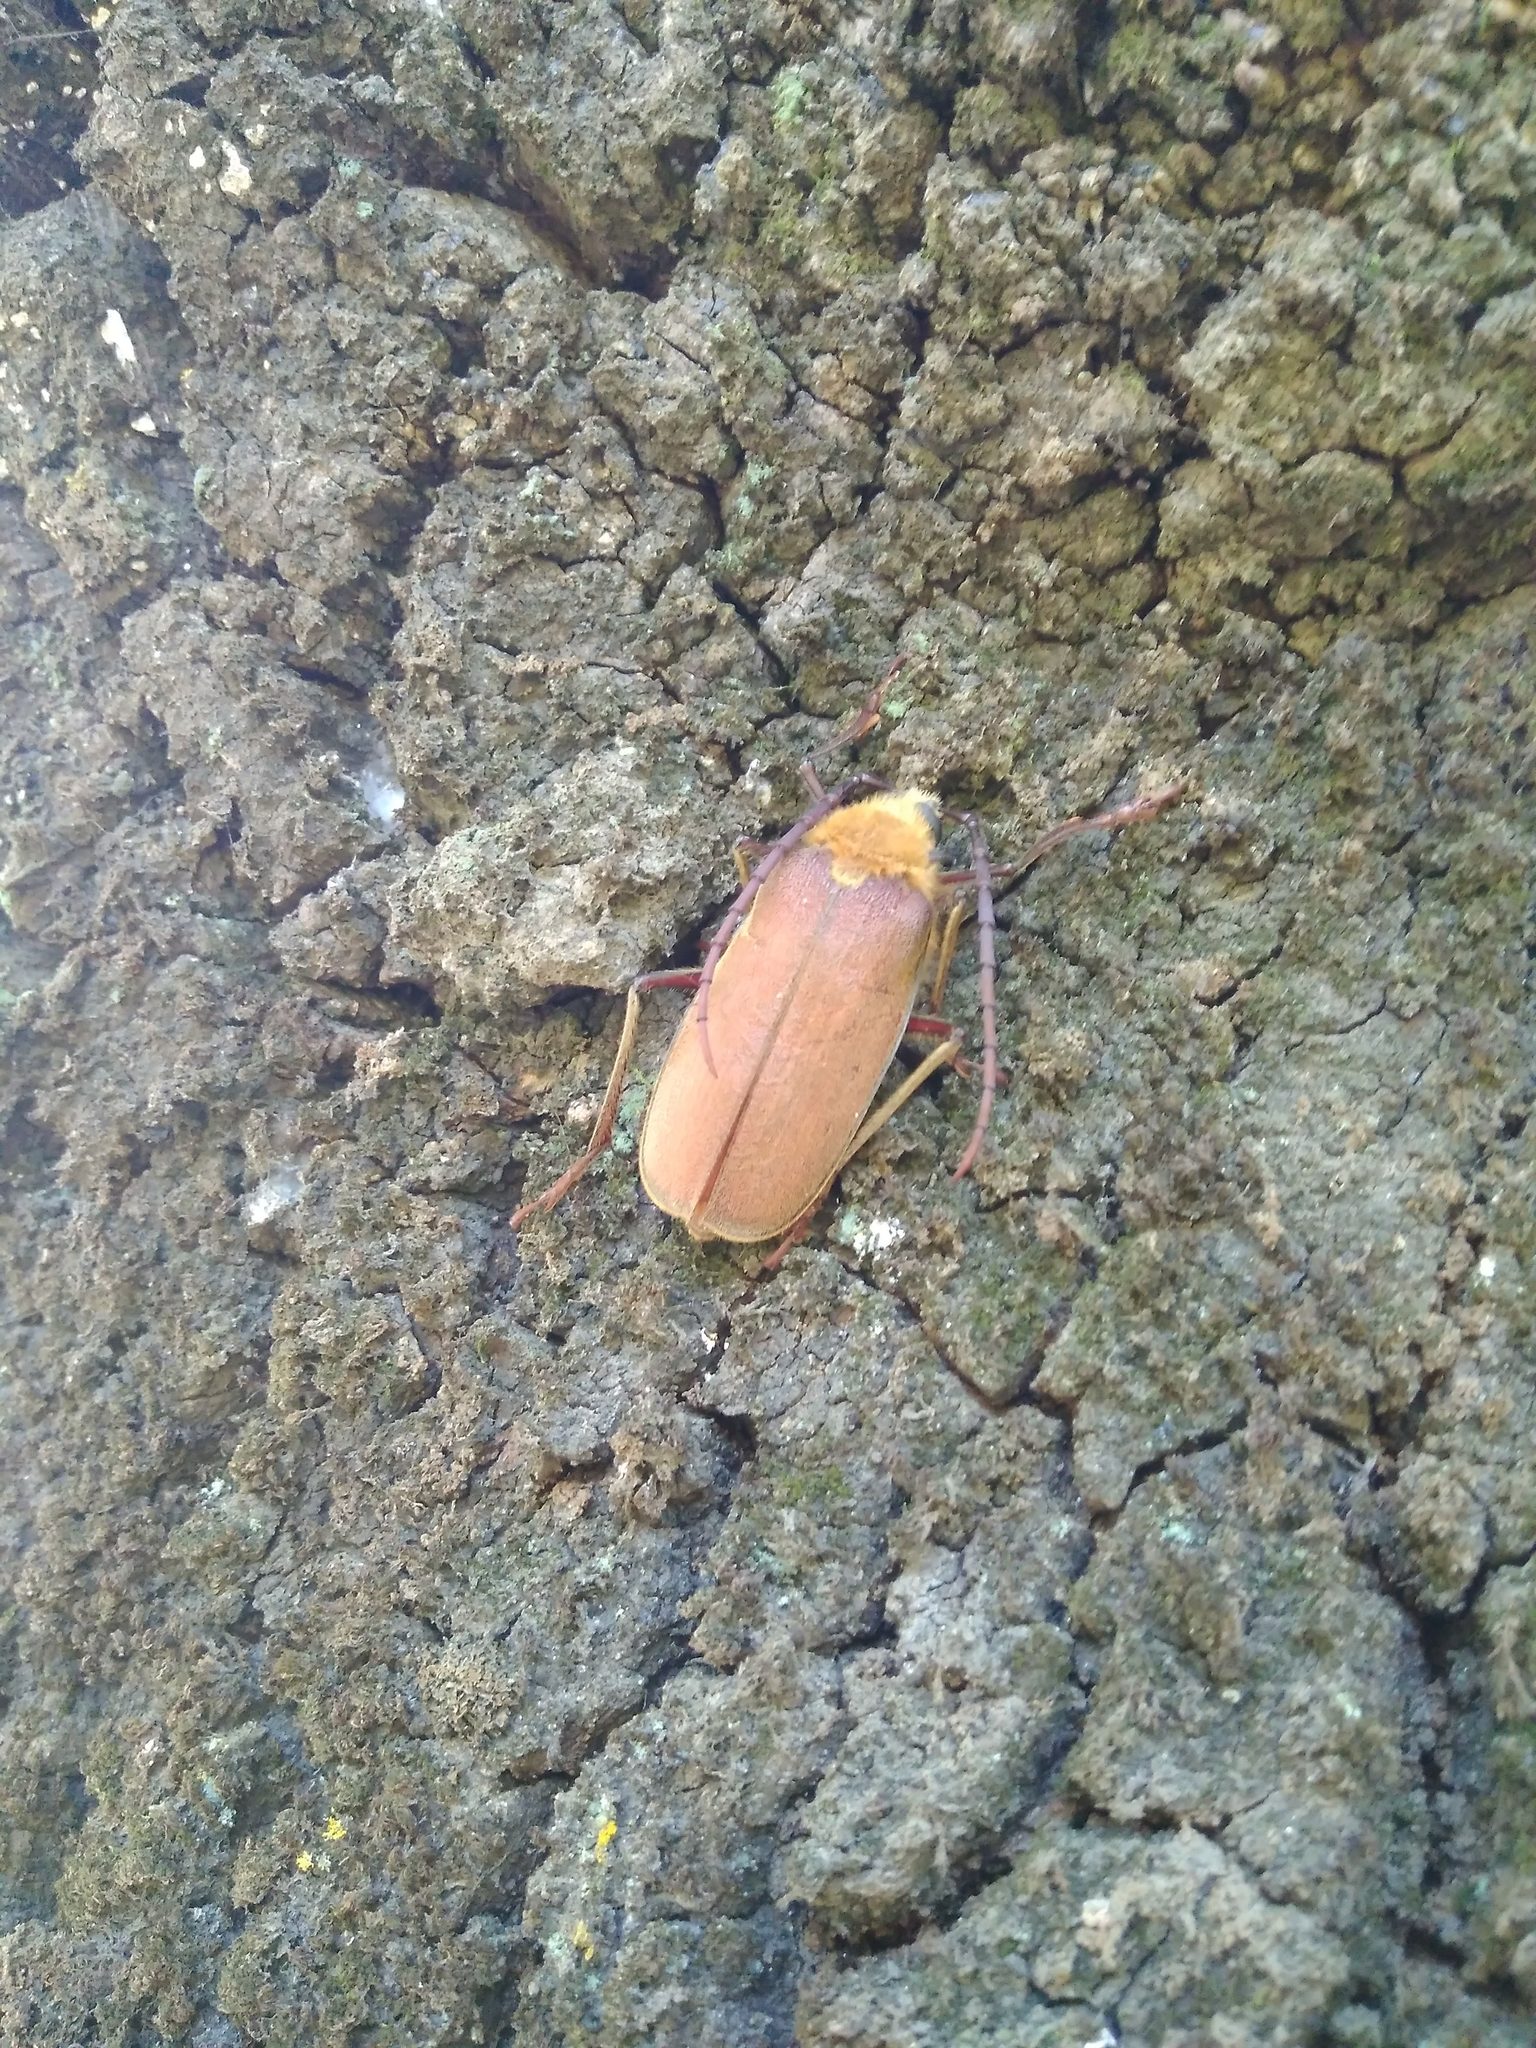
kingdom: Animalia
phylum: Arthropoda
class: Insecta
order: Coleoptera
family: Cerambycidae
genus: Acanthinodera
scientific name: Acanthinodera cumingii
